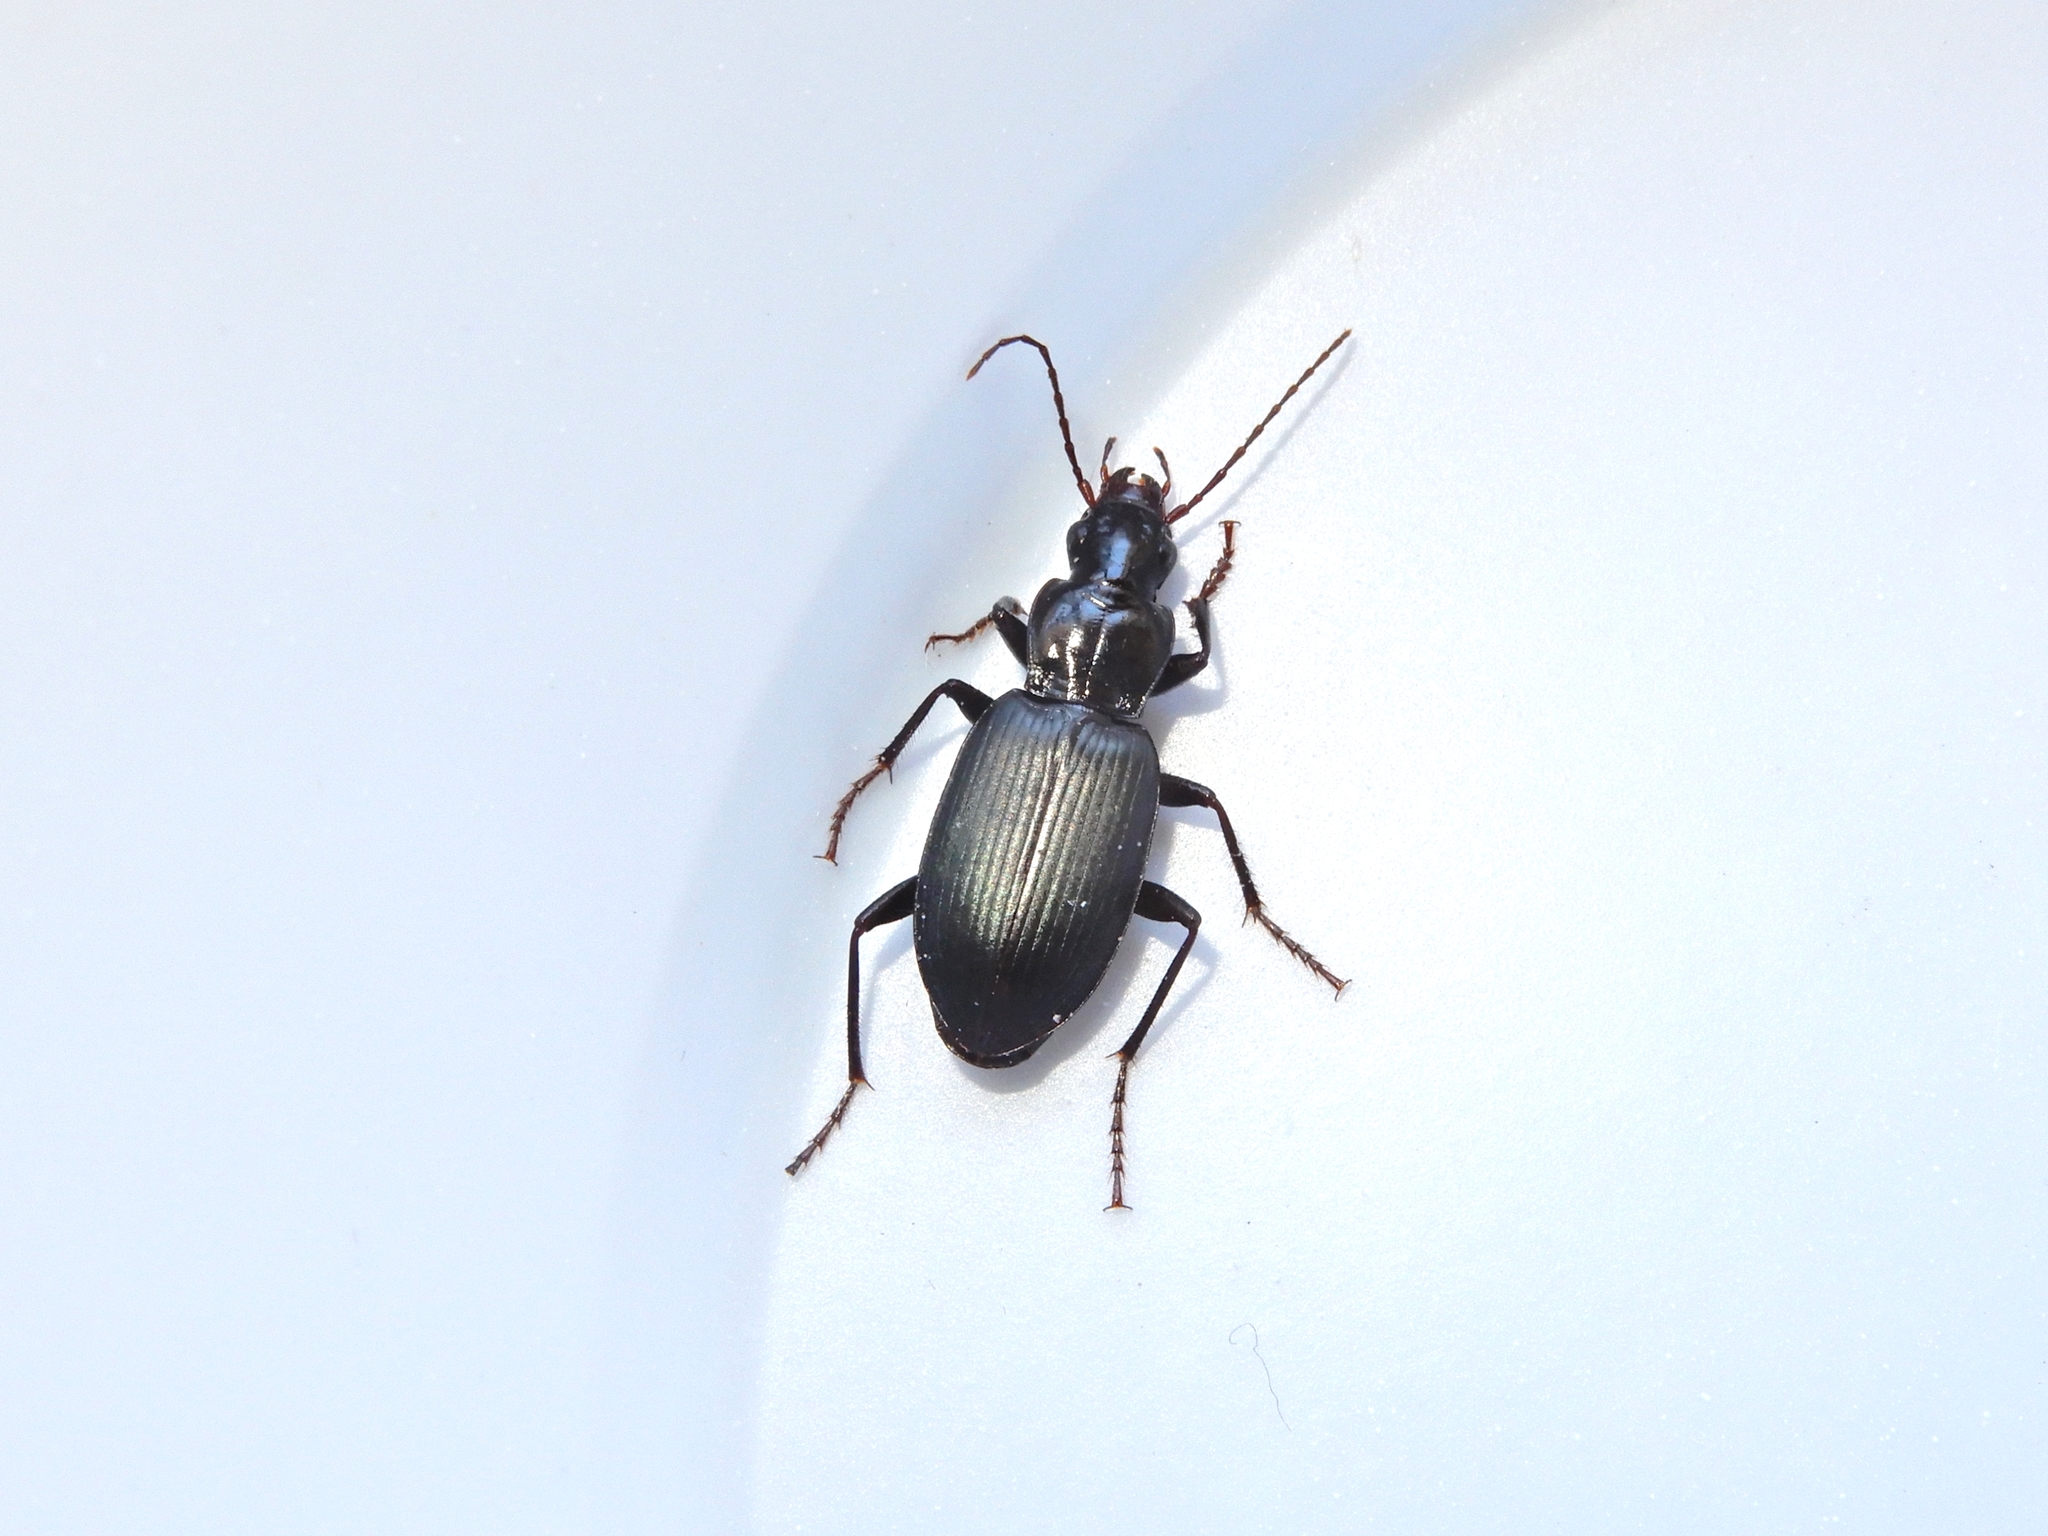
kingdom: Animalia
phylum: Arthropoda
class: Insecta
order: Coleoptera
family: Carabidae
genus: Laemostenus
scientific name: Laemostenus complanatus
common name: Cosmopolitan ground beetle
